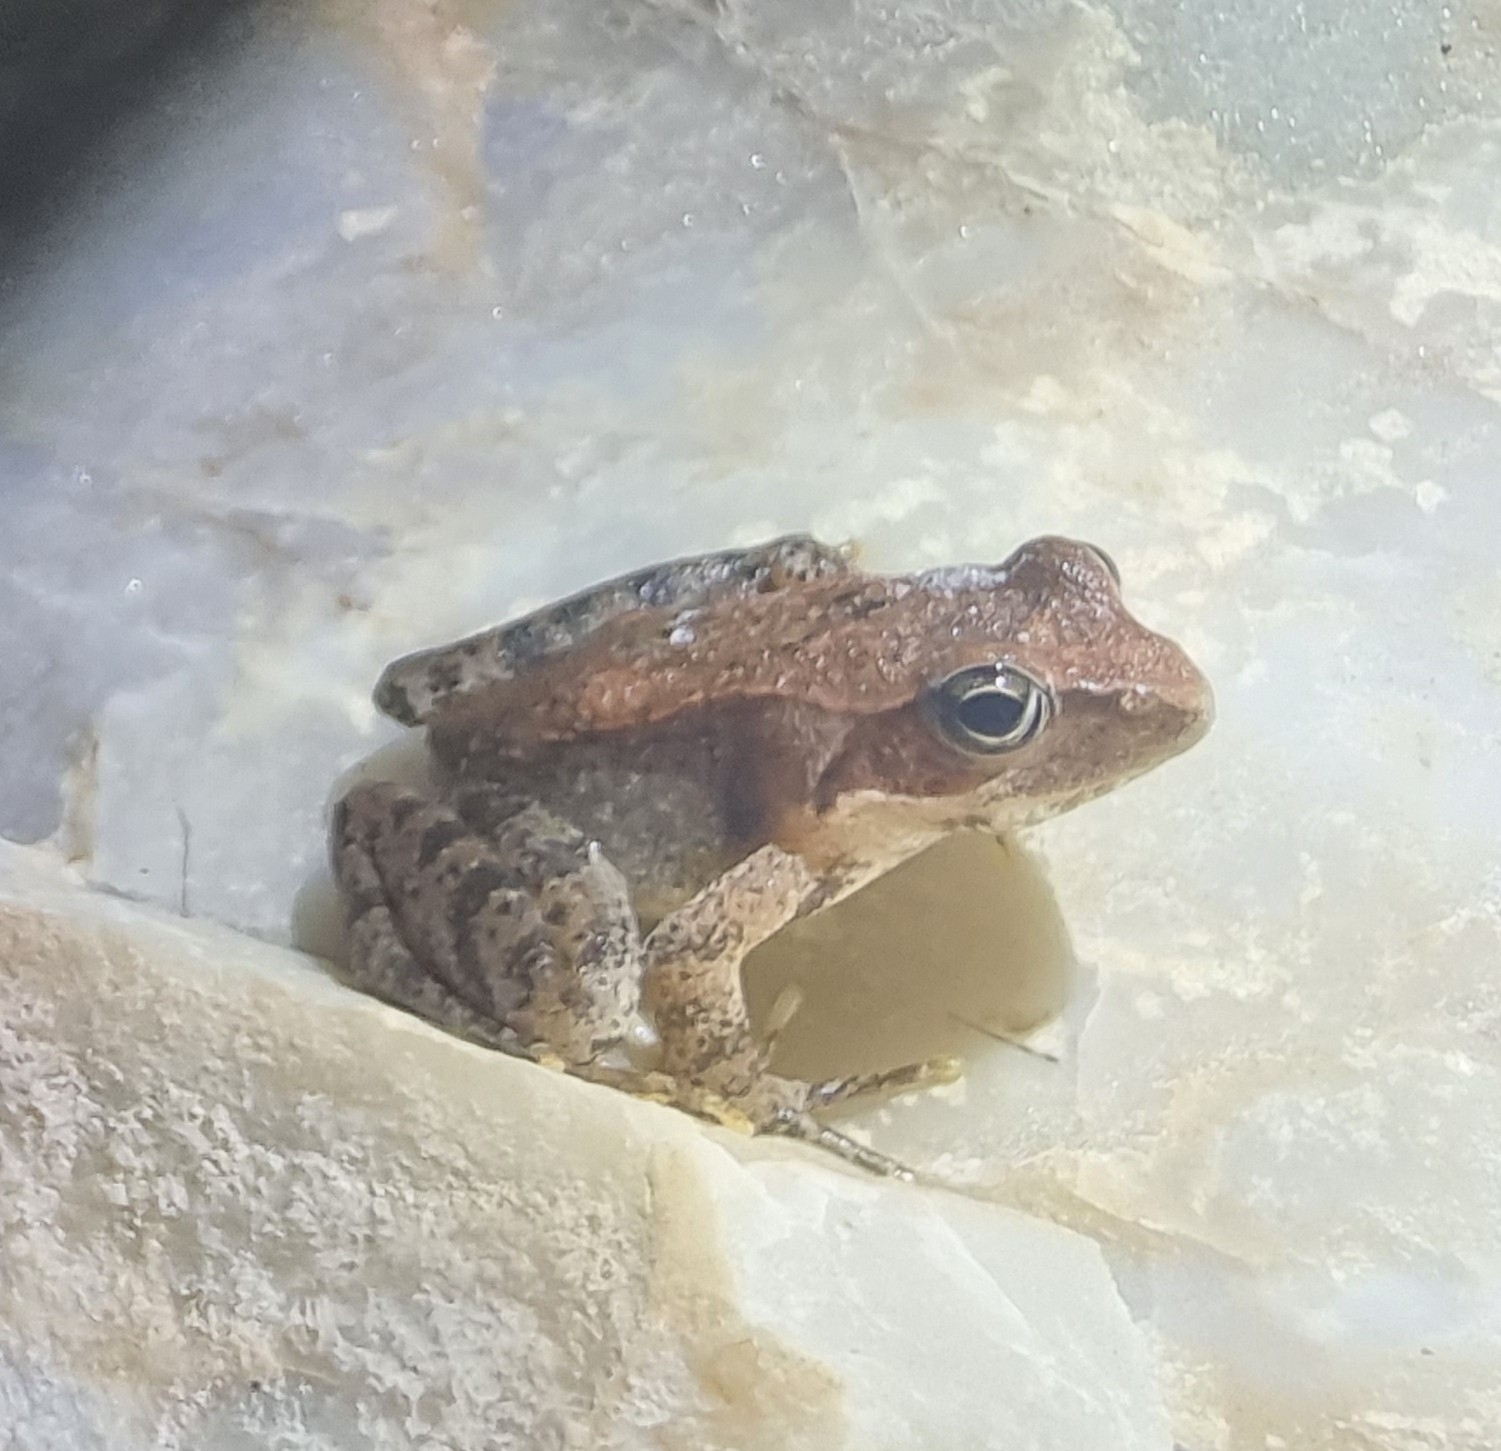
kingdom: Animalia
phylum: Chordata
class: Amphibia
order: Anura
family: Ranidae
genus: Rana
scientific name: Rana italica
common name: Italian stream frog
